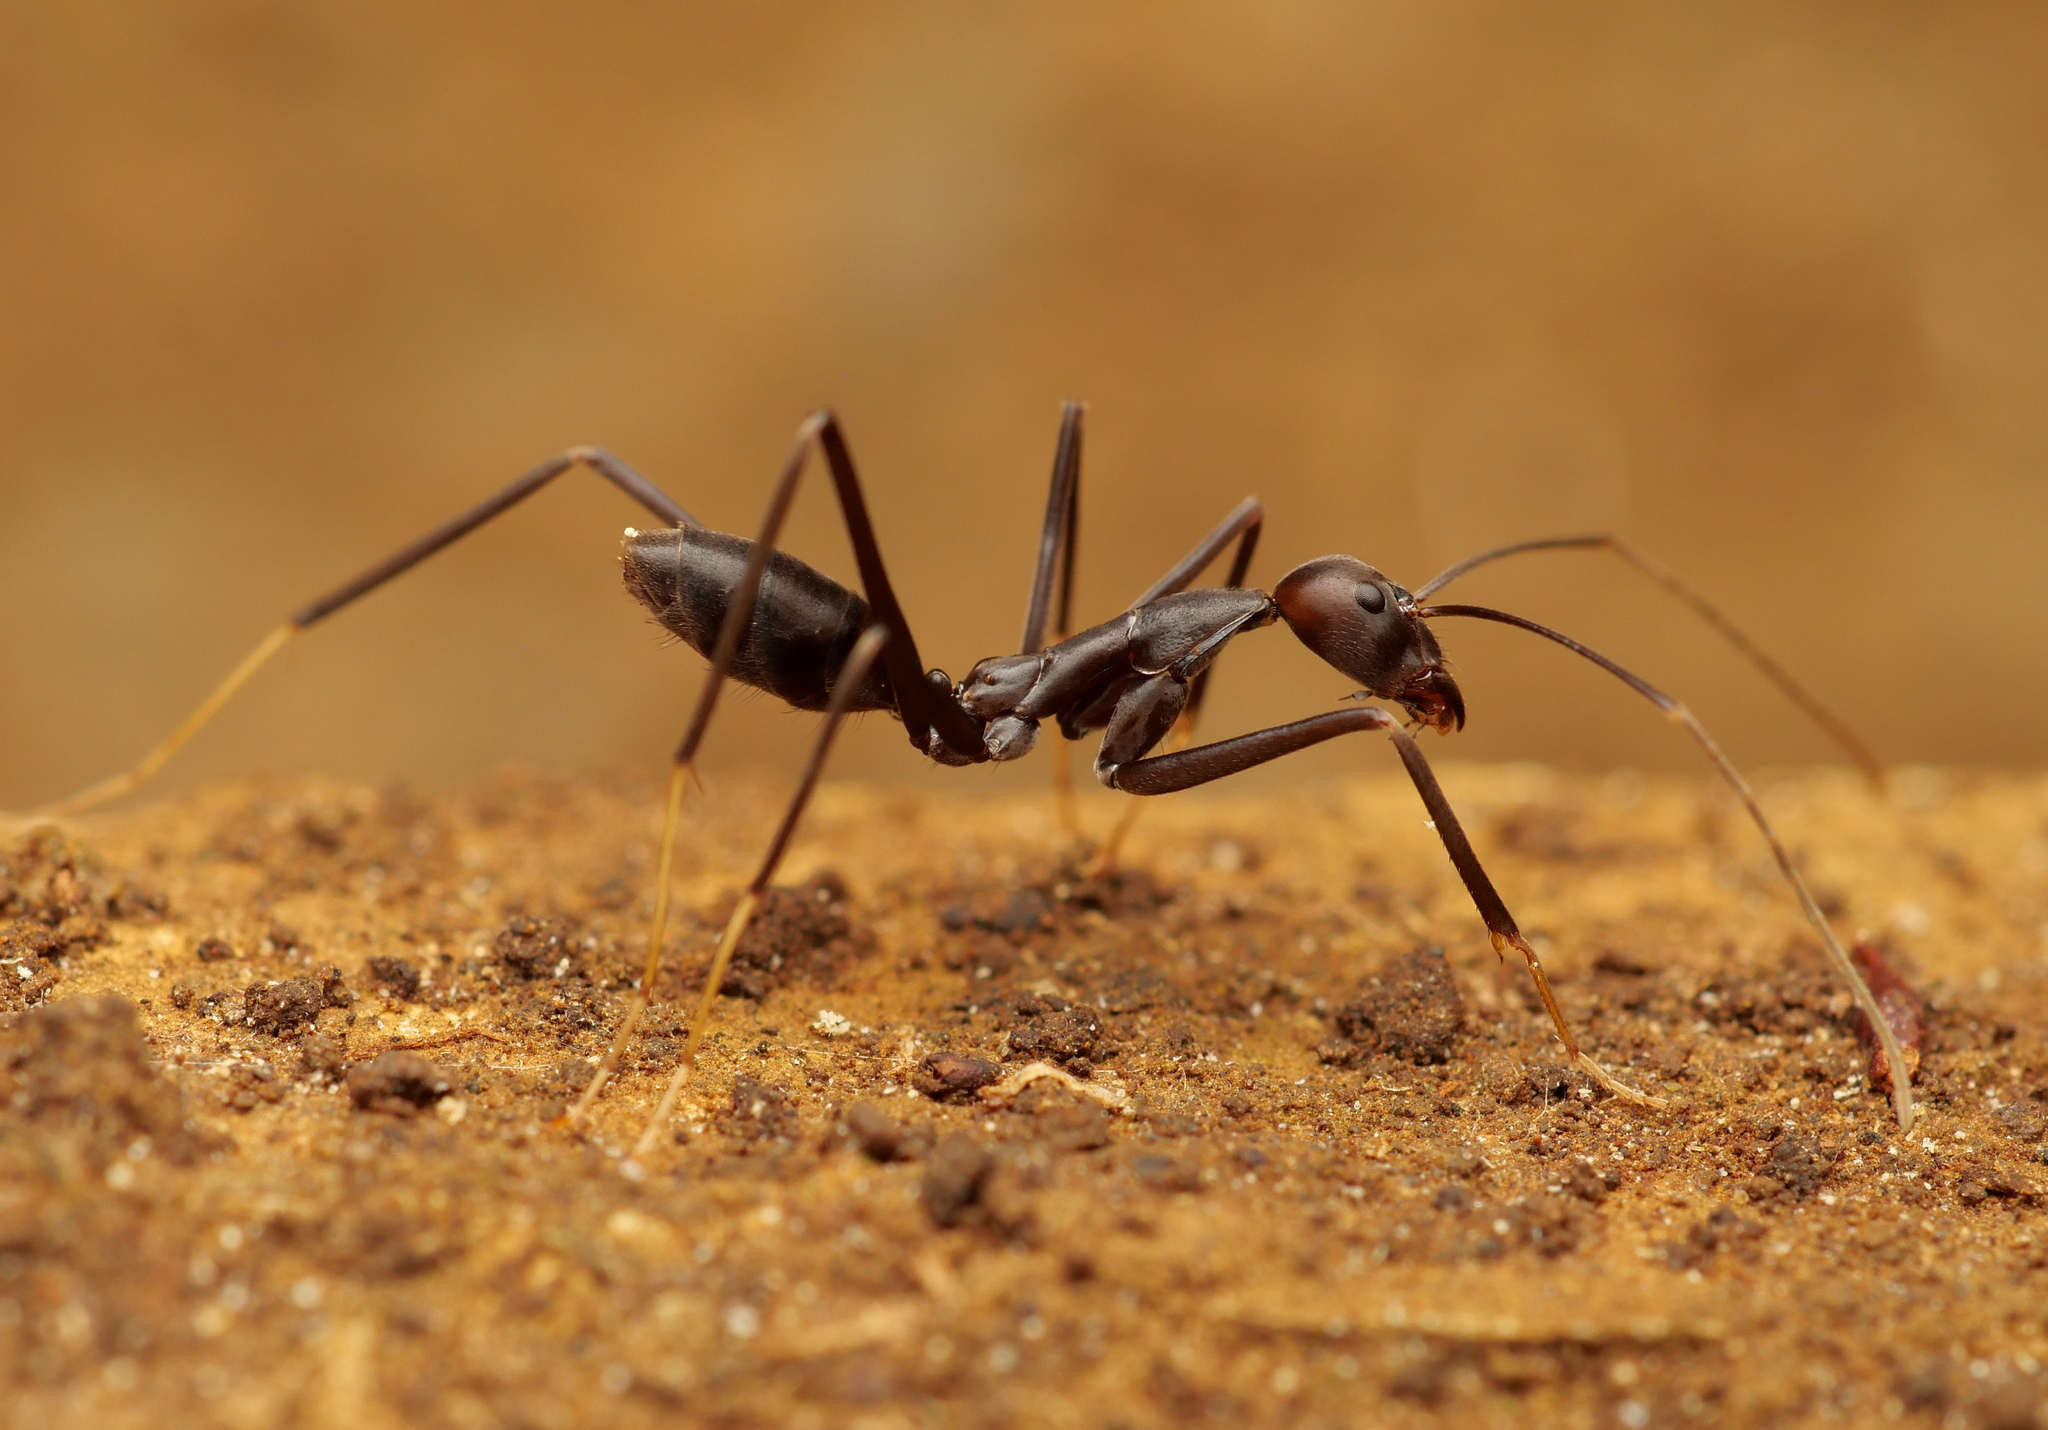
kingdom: Animalia
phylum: Arthropoda
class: Insecta
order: Hymenoptera
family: Formicidae
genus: Leptomyrmex
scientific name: Leptomyrmex flavitarsus
